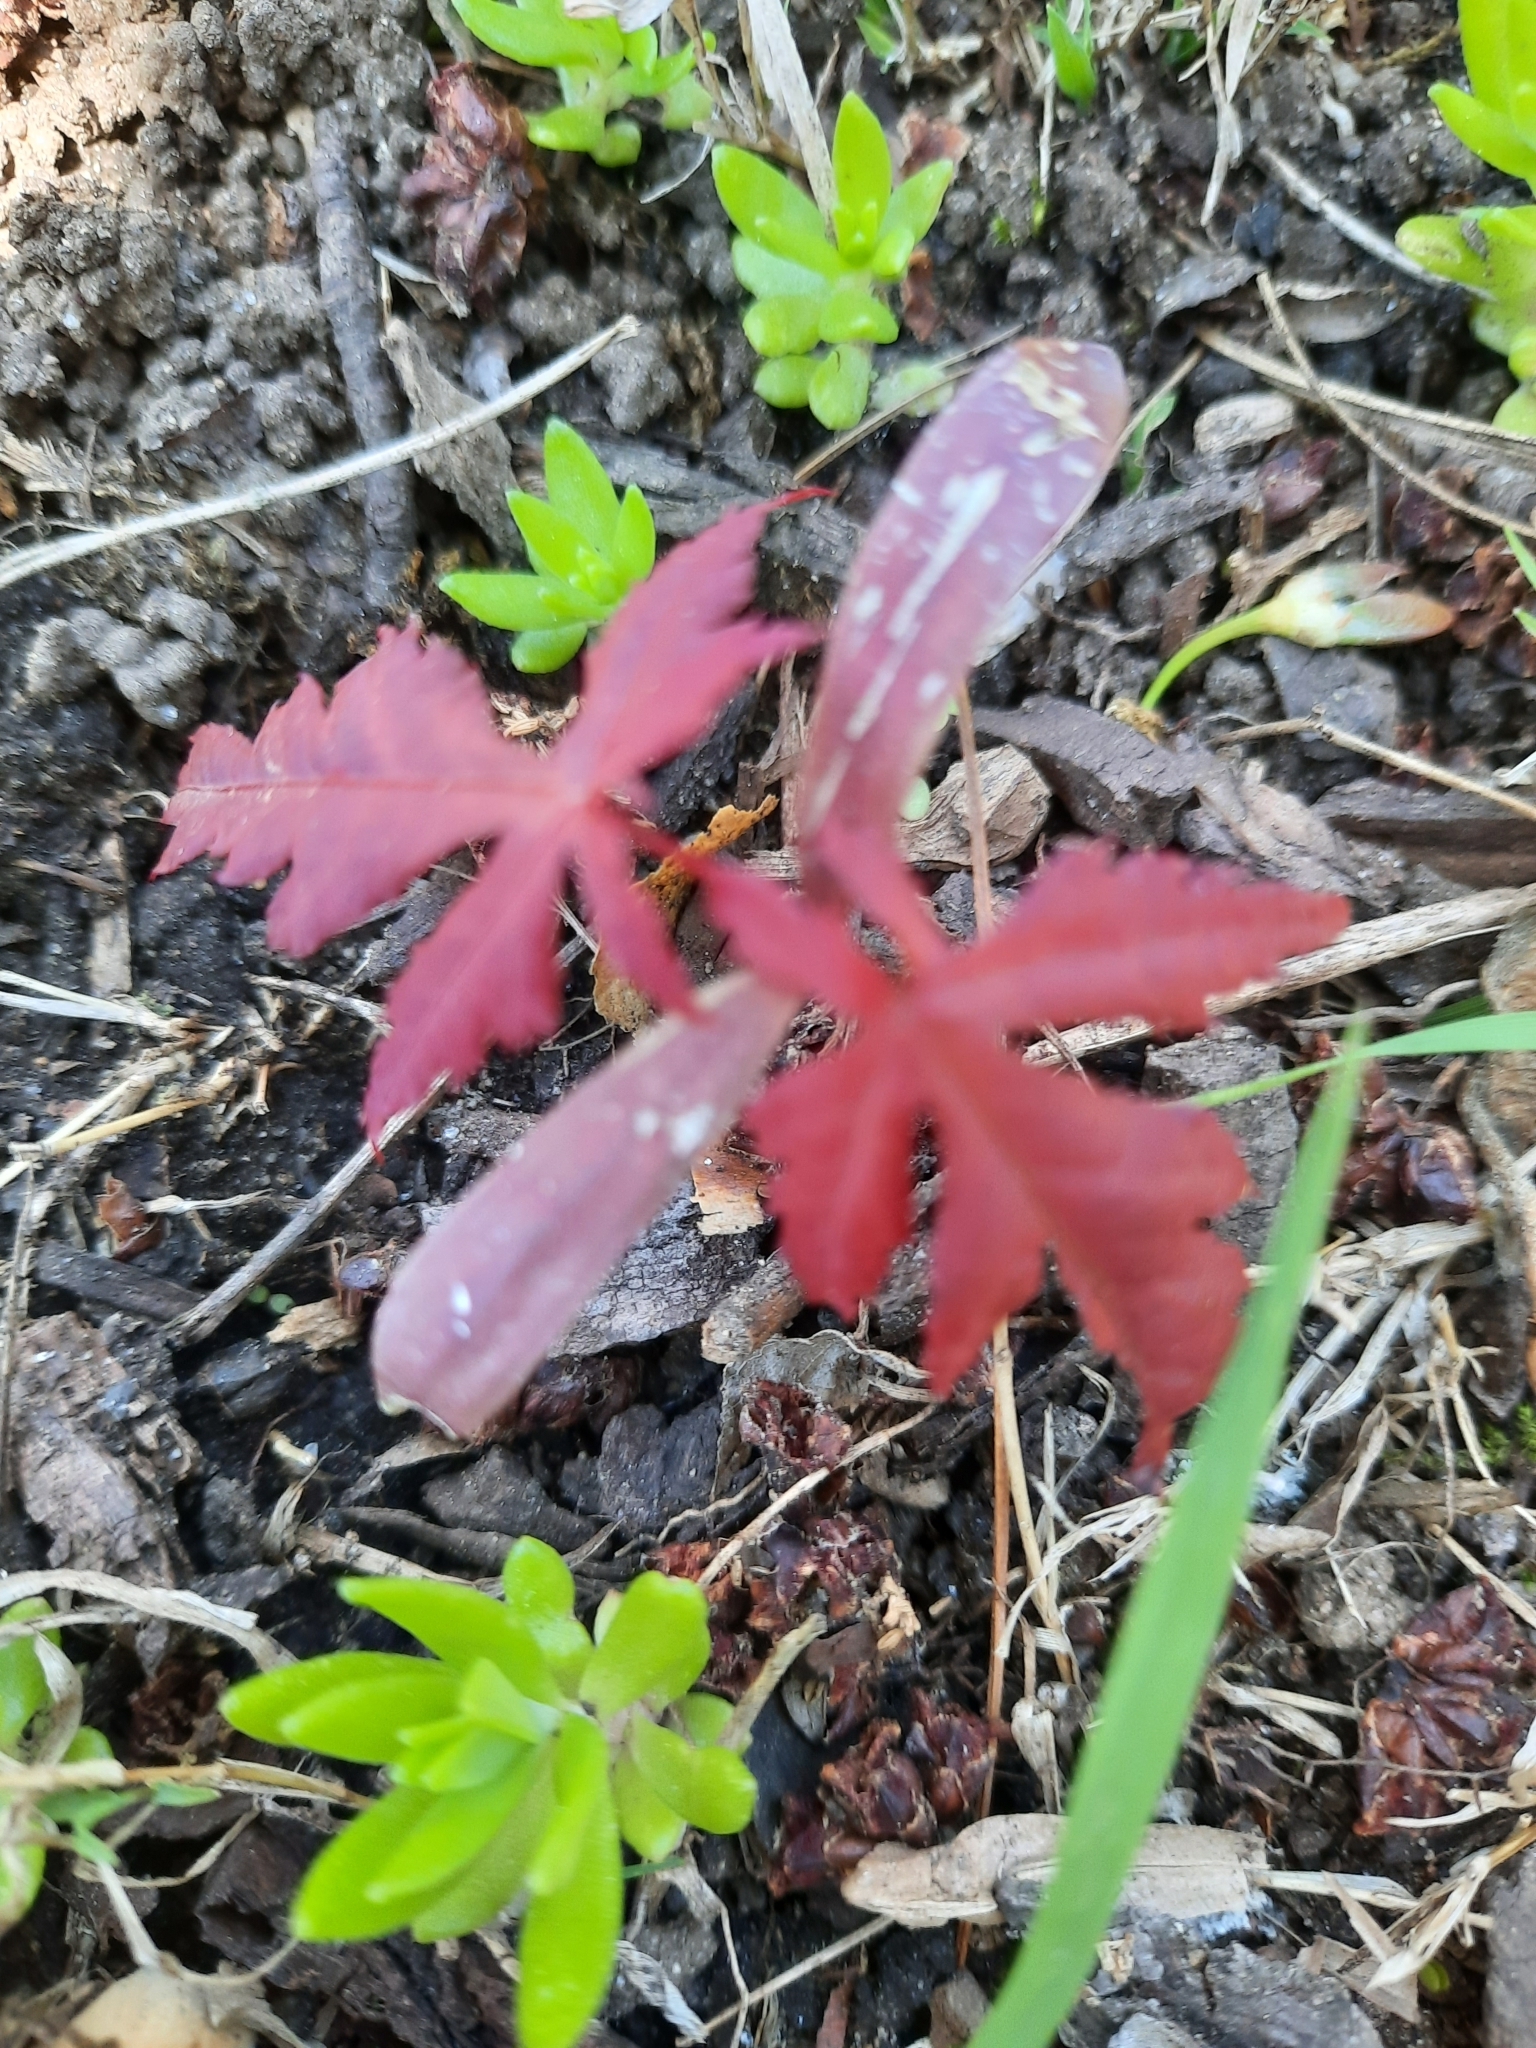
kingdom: Plantae
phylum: Tracheophyta
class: Magnoliopsida
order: Sapindales
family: Sapindaceae
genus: Acer
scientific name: Acer palmatum
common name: Japanese maple
